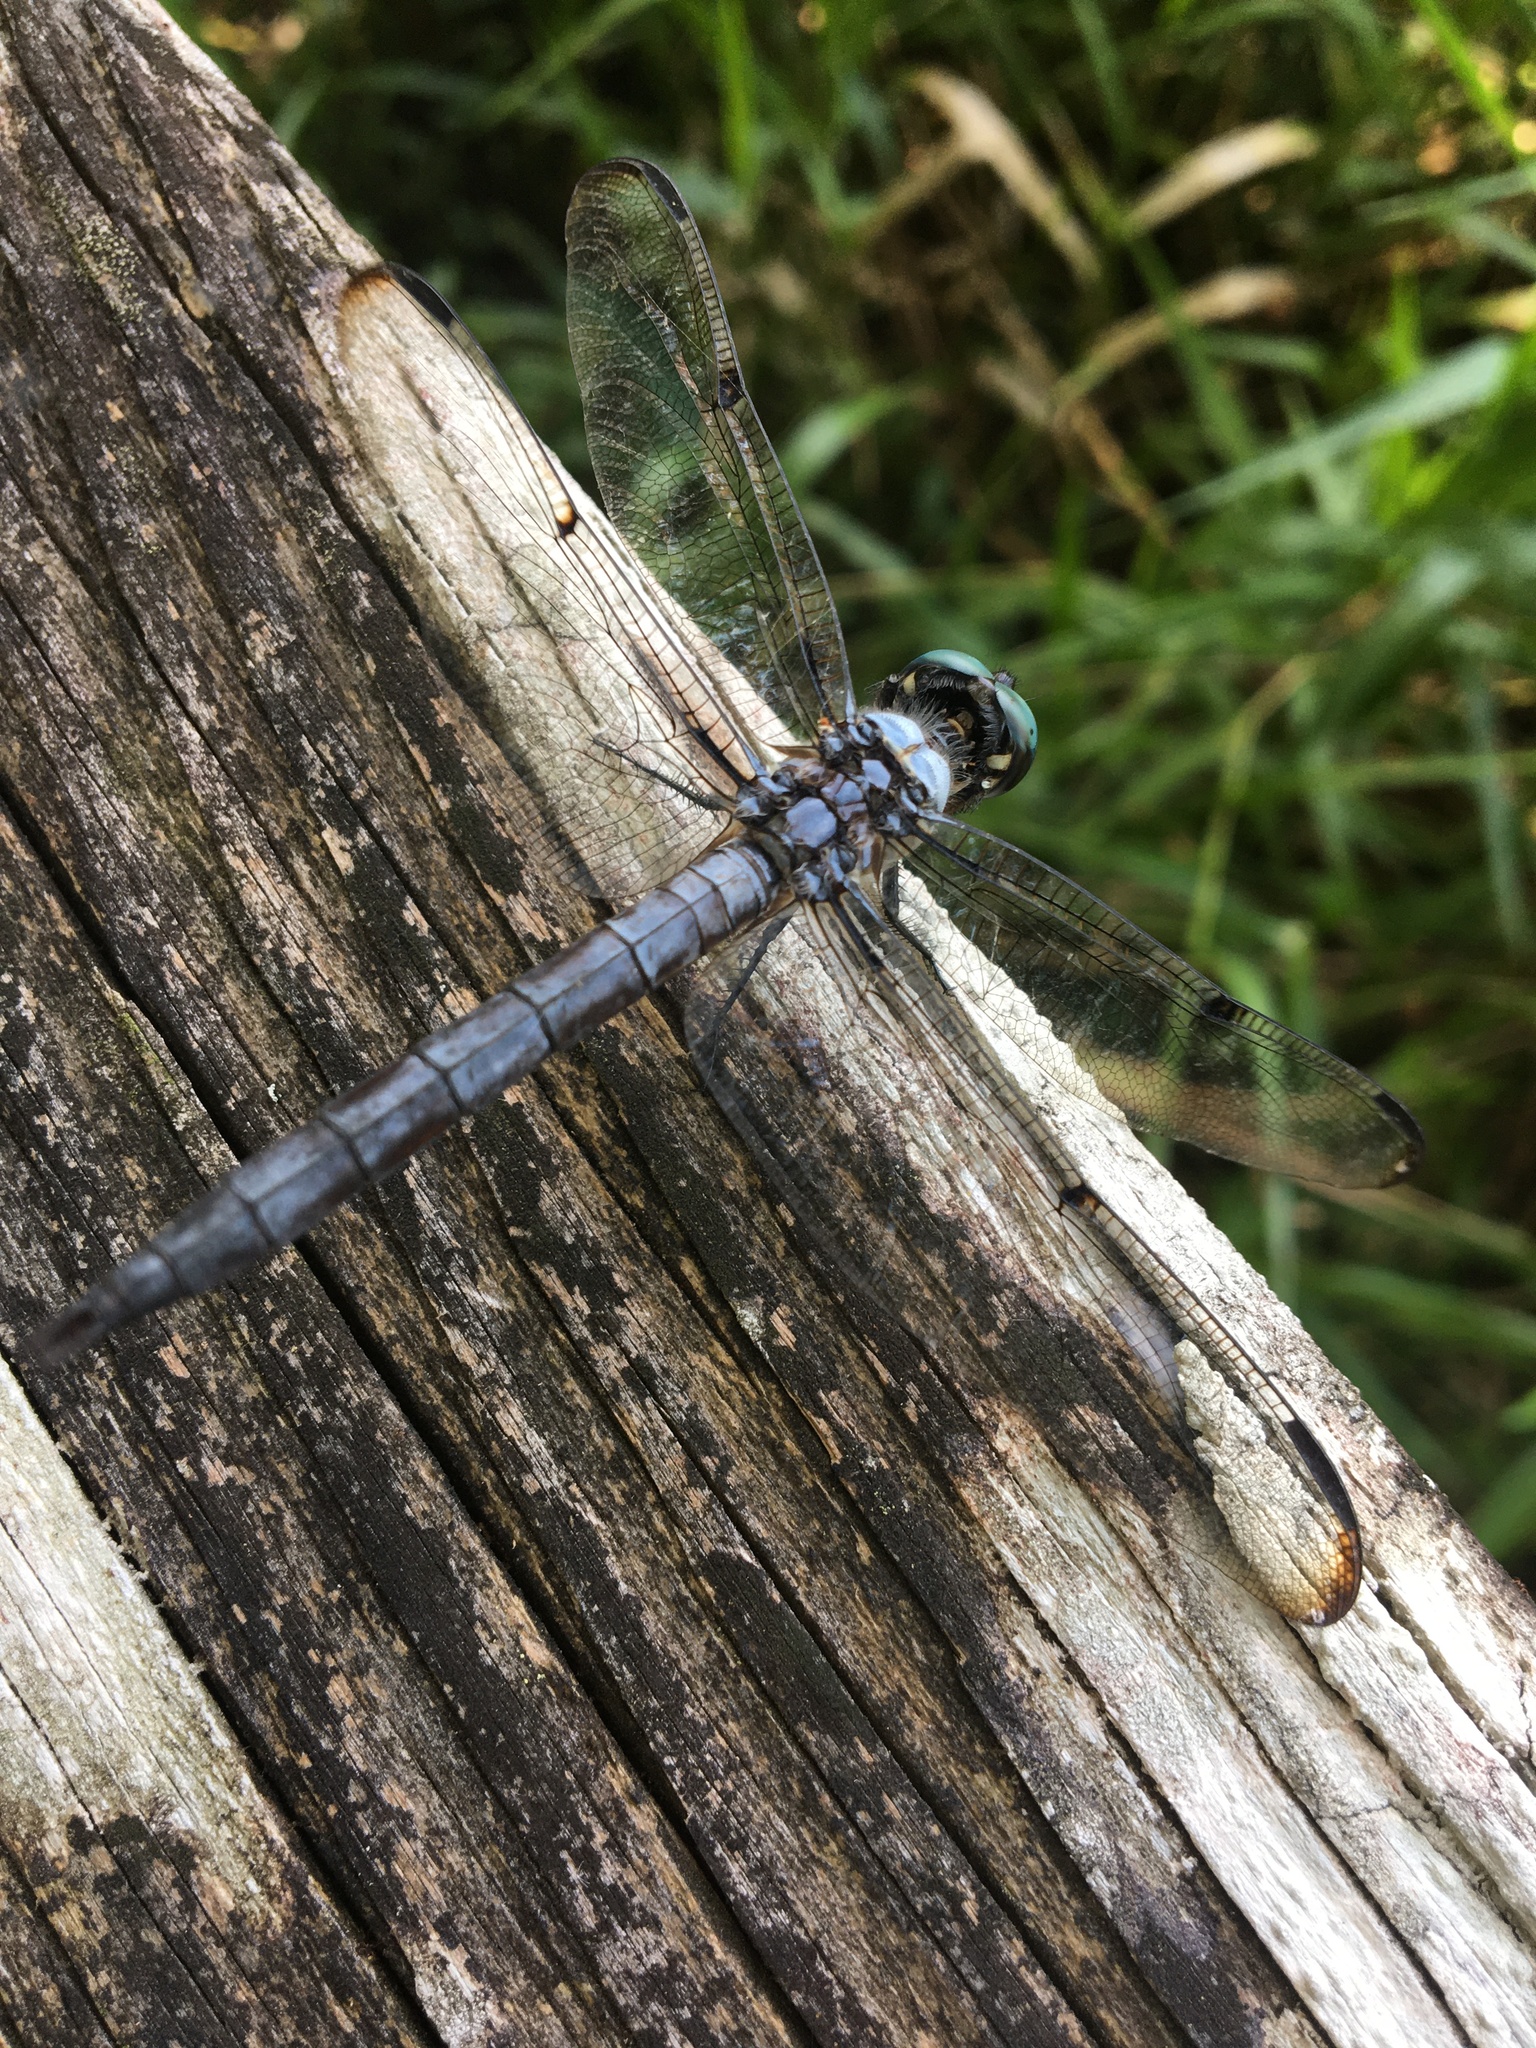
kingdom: Animalia
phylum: Arthropoda
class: Insecta
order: Odonata
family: Libellulidae
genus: Libellula
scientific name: Libellula vibrans
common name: Great blue skimmer
